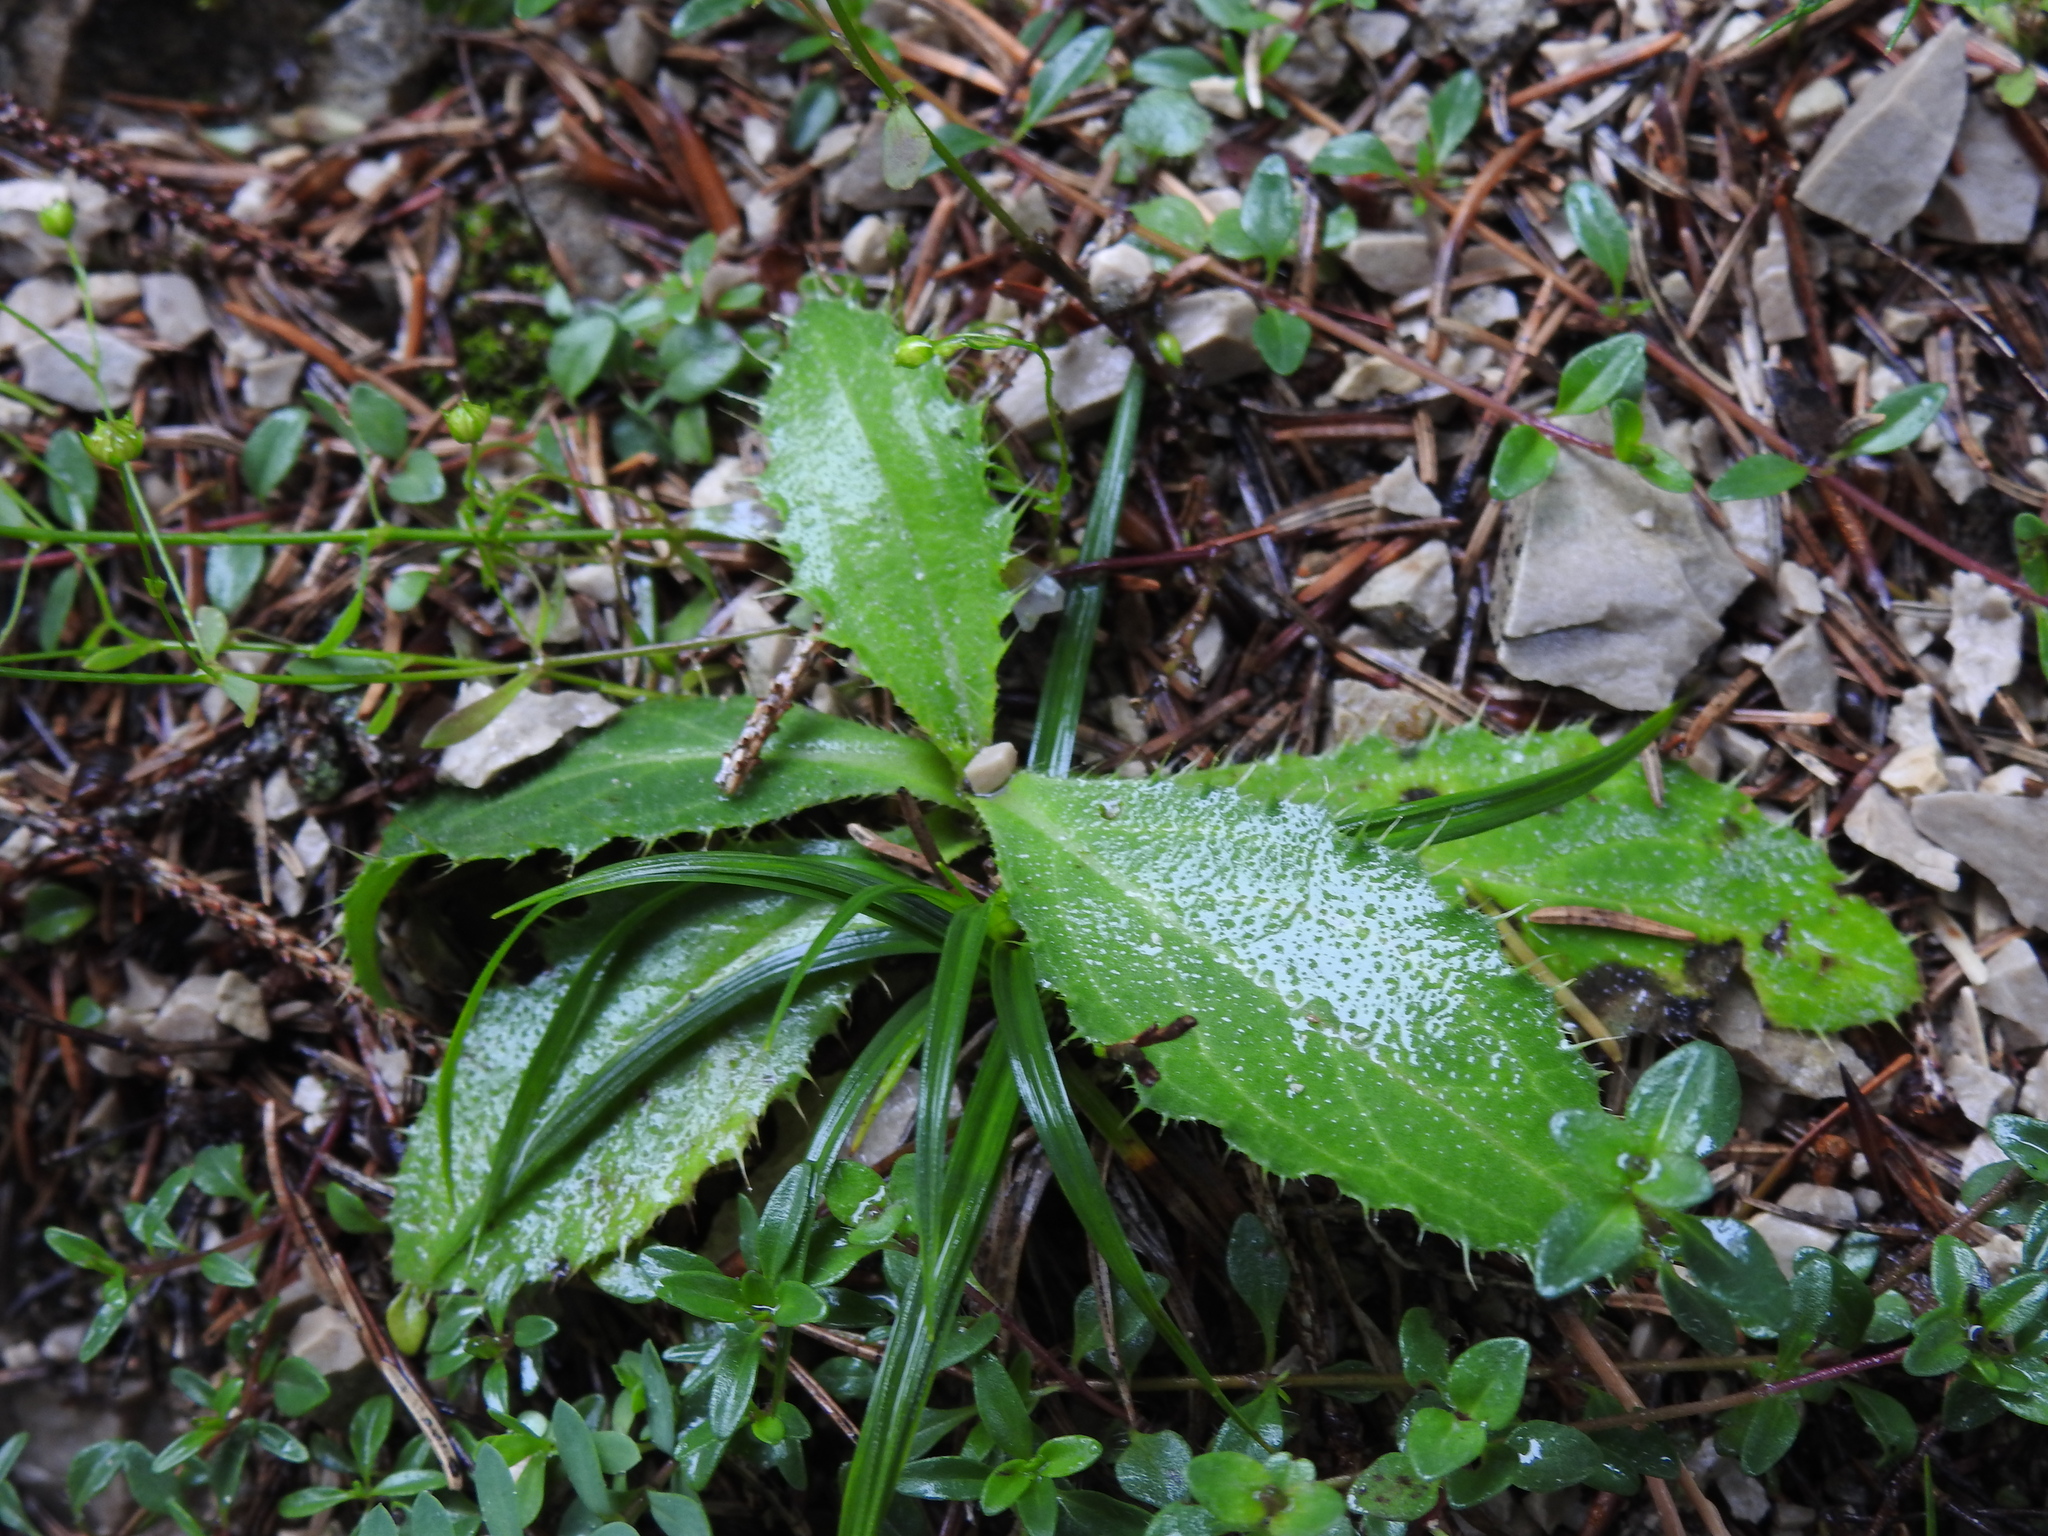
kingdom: Plantae
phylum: Tracheophyta
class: Magnoliopsida
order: Asterales
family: Asteraceae
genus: Carduus
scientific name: Carduus defloratus
